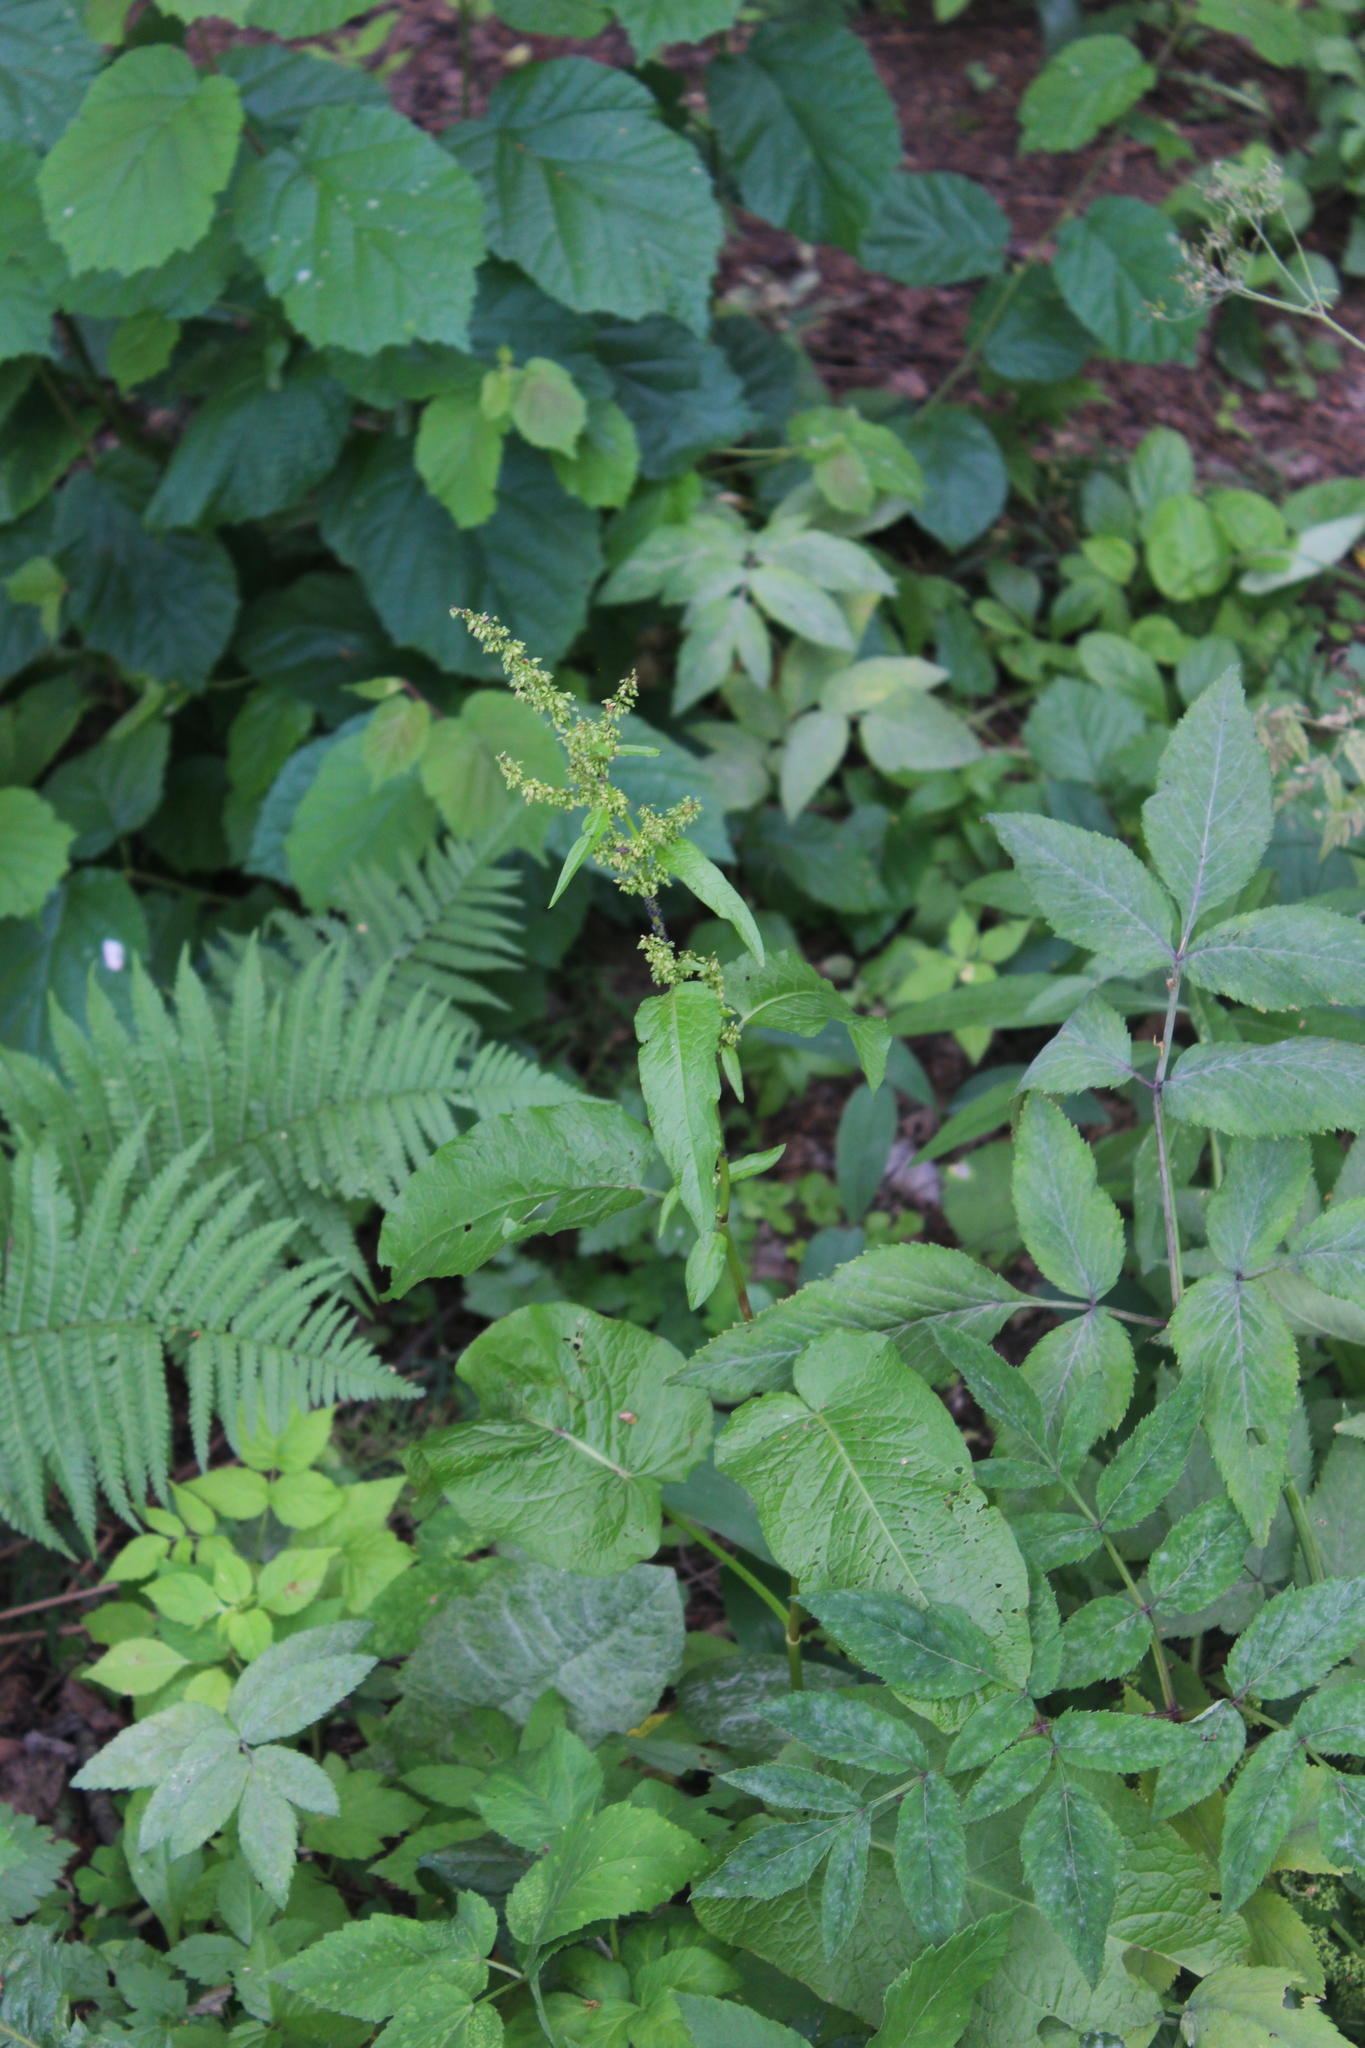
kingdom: Plantae
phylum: Tracheophyta
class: Magnoliopsida
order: Caryophyllales
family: Polygonaceae
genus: Rumex
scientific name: Rumex obtusifolius
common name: Bitter dock
